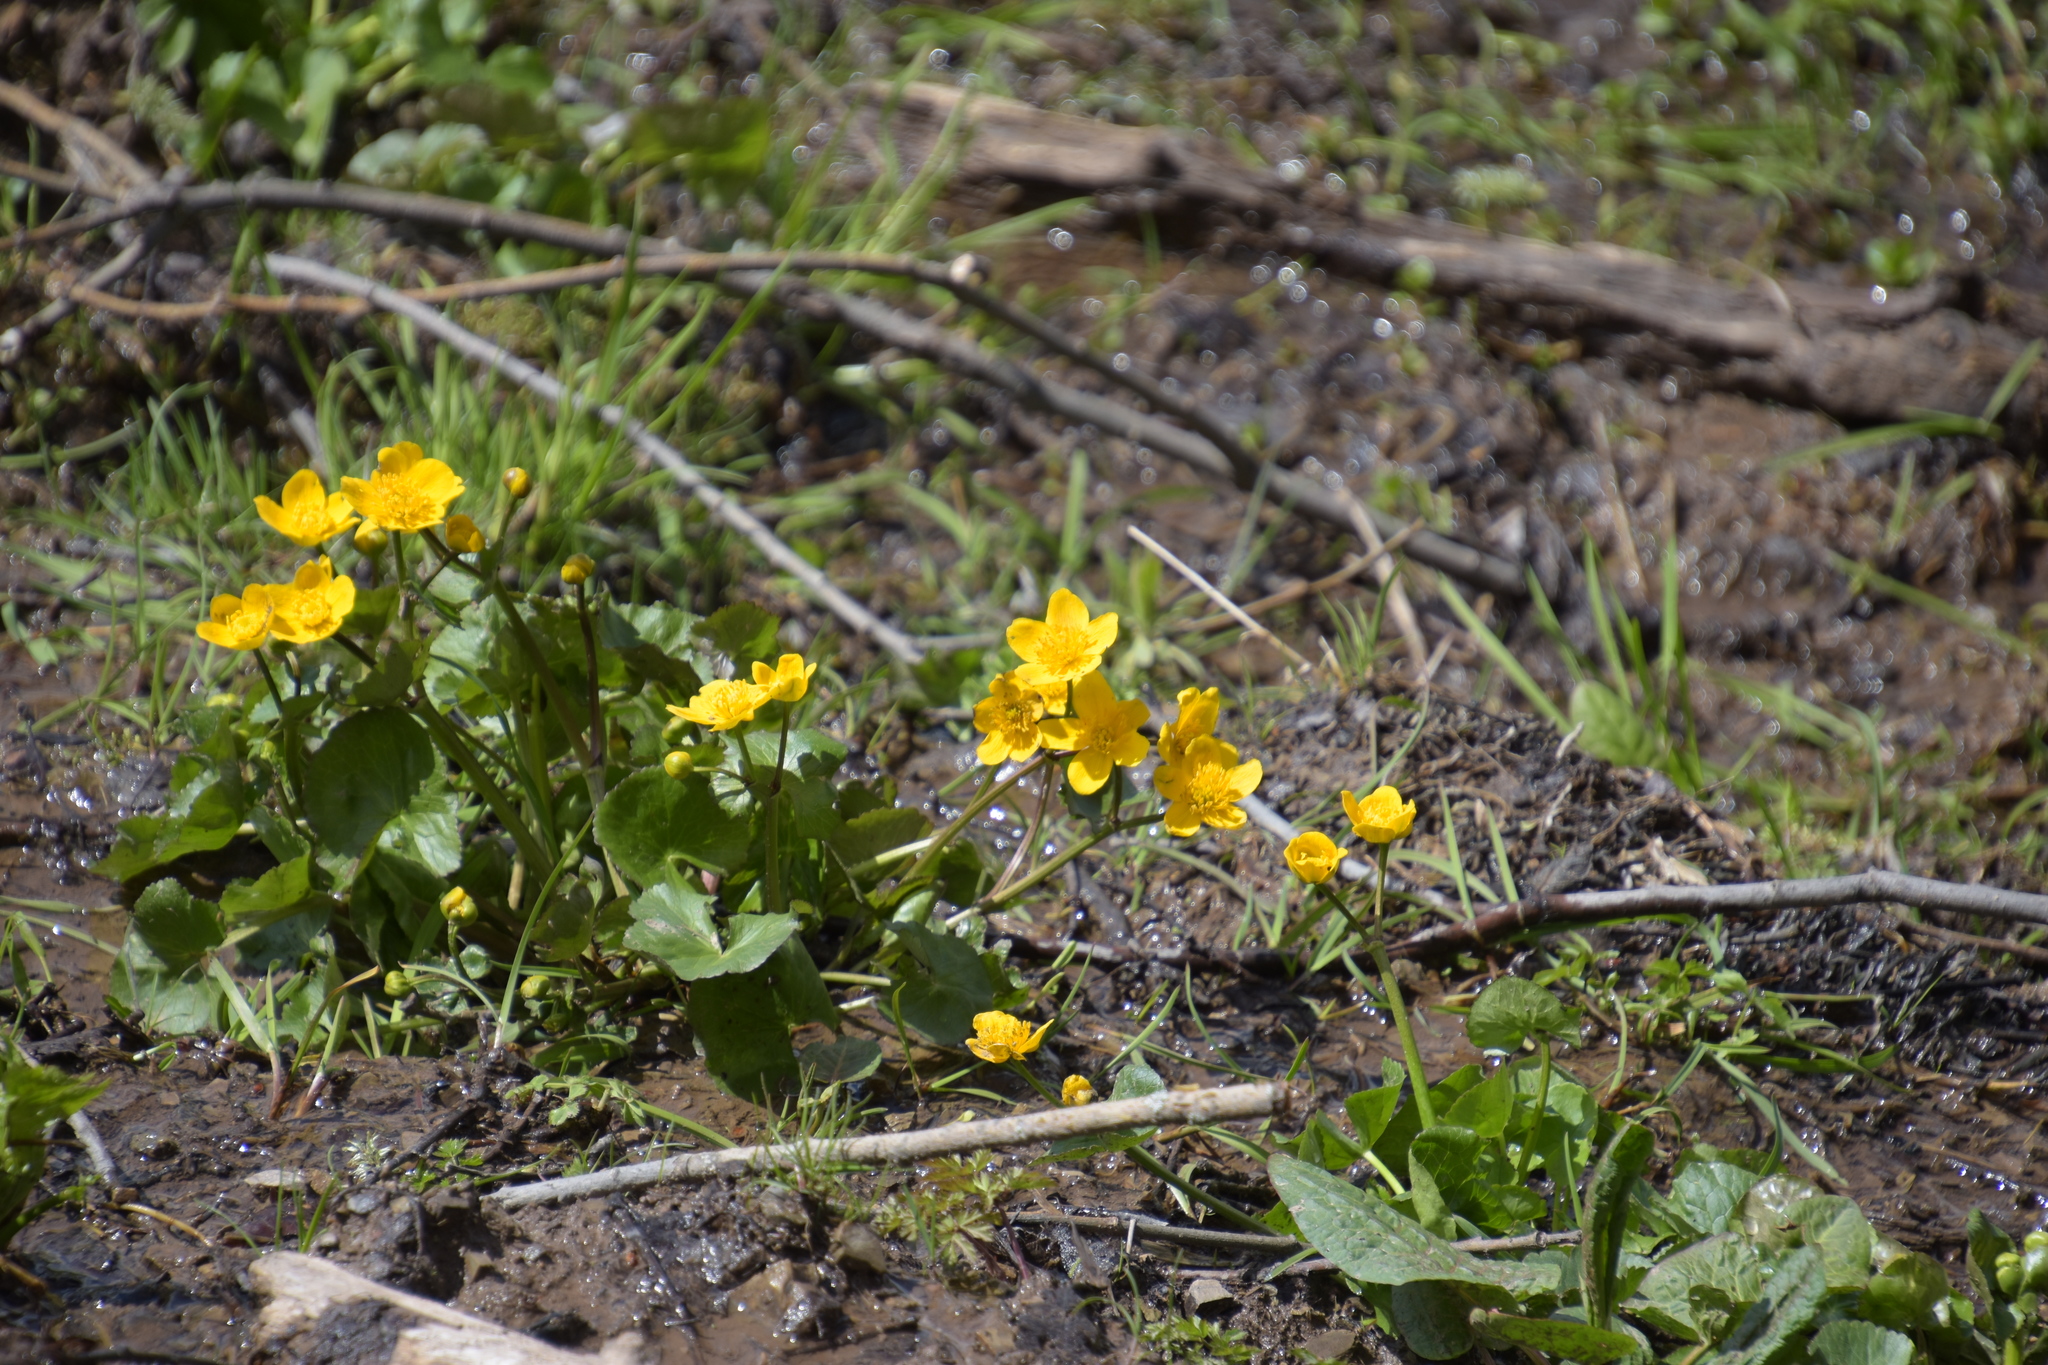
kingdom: Plantae
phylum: Tracheophyta
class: Magnoliopsida
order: Ranunculales
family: Ranunculaceae
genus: Caltha
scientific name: Caltha palustris
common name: Marsh marigold
